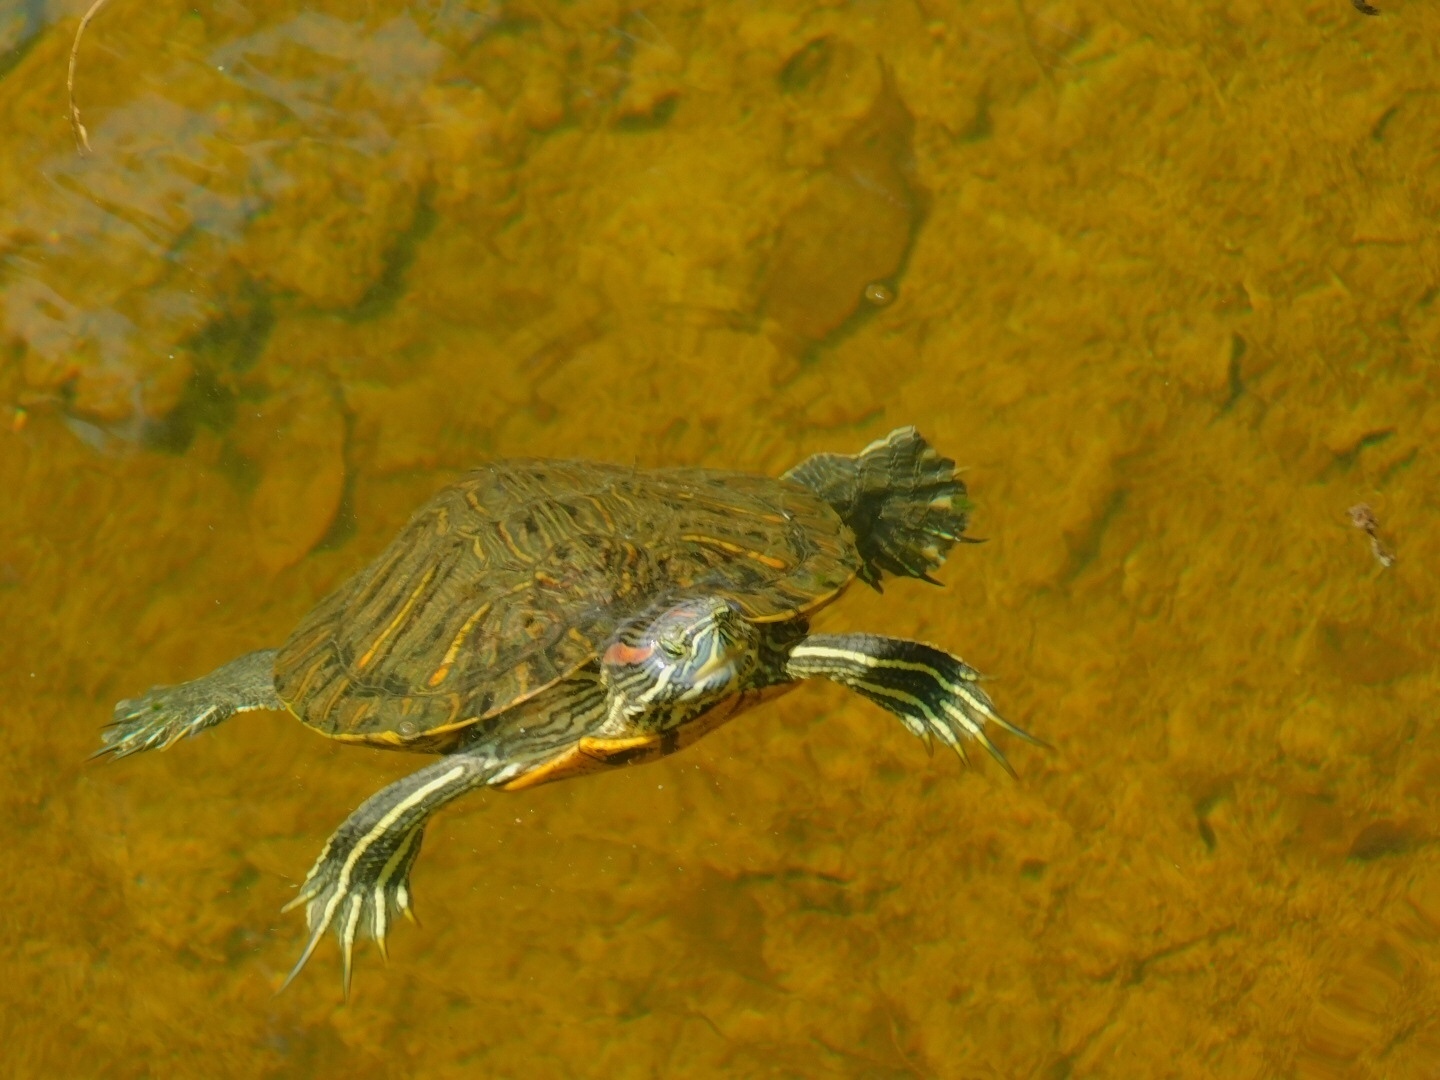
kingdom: Animalia
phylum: Chordata
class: Testudines
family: Emydidae
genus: Trachemys
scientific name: Trachemys scripta
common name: Slider
